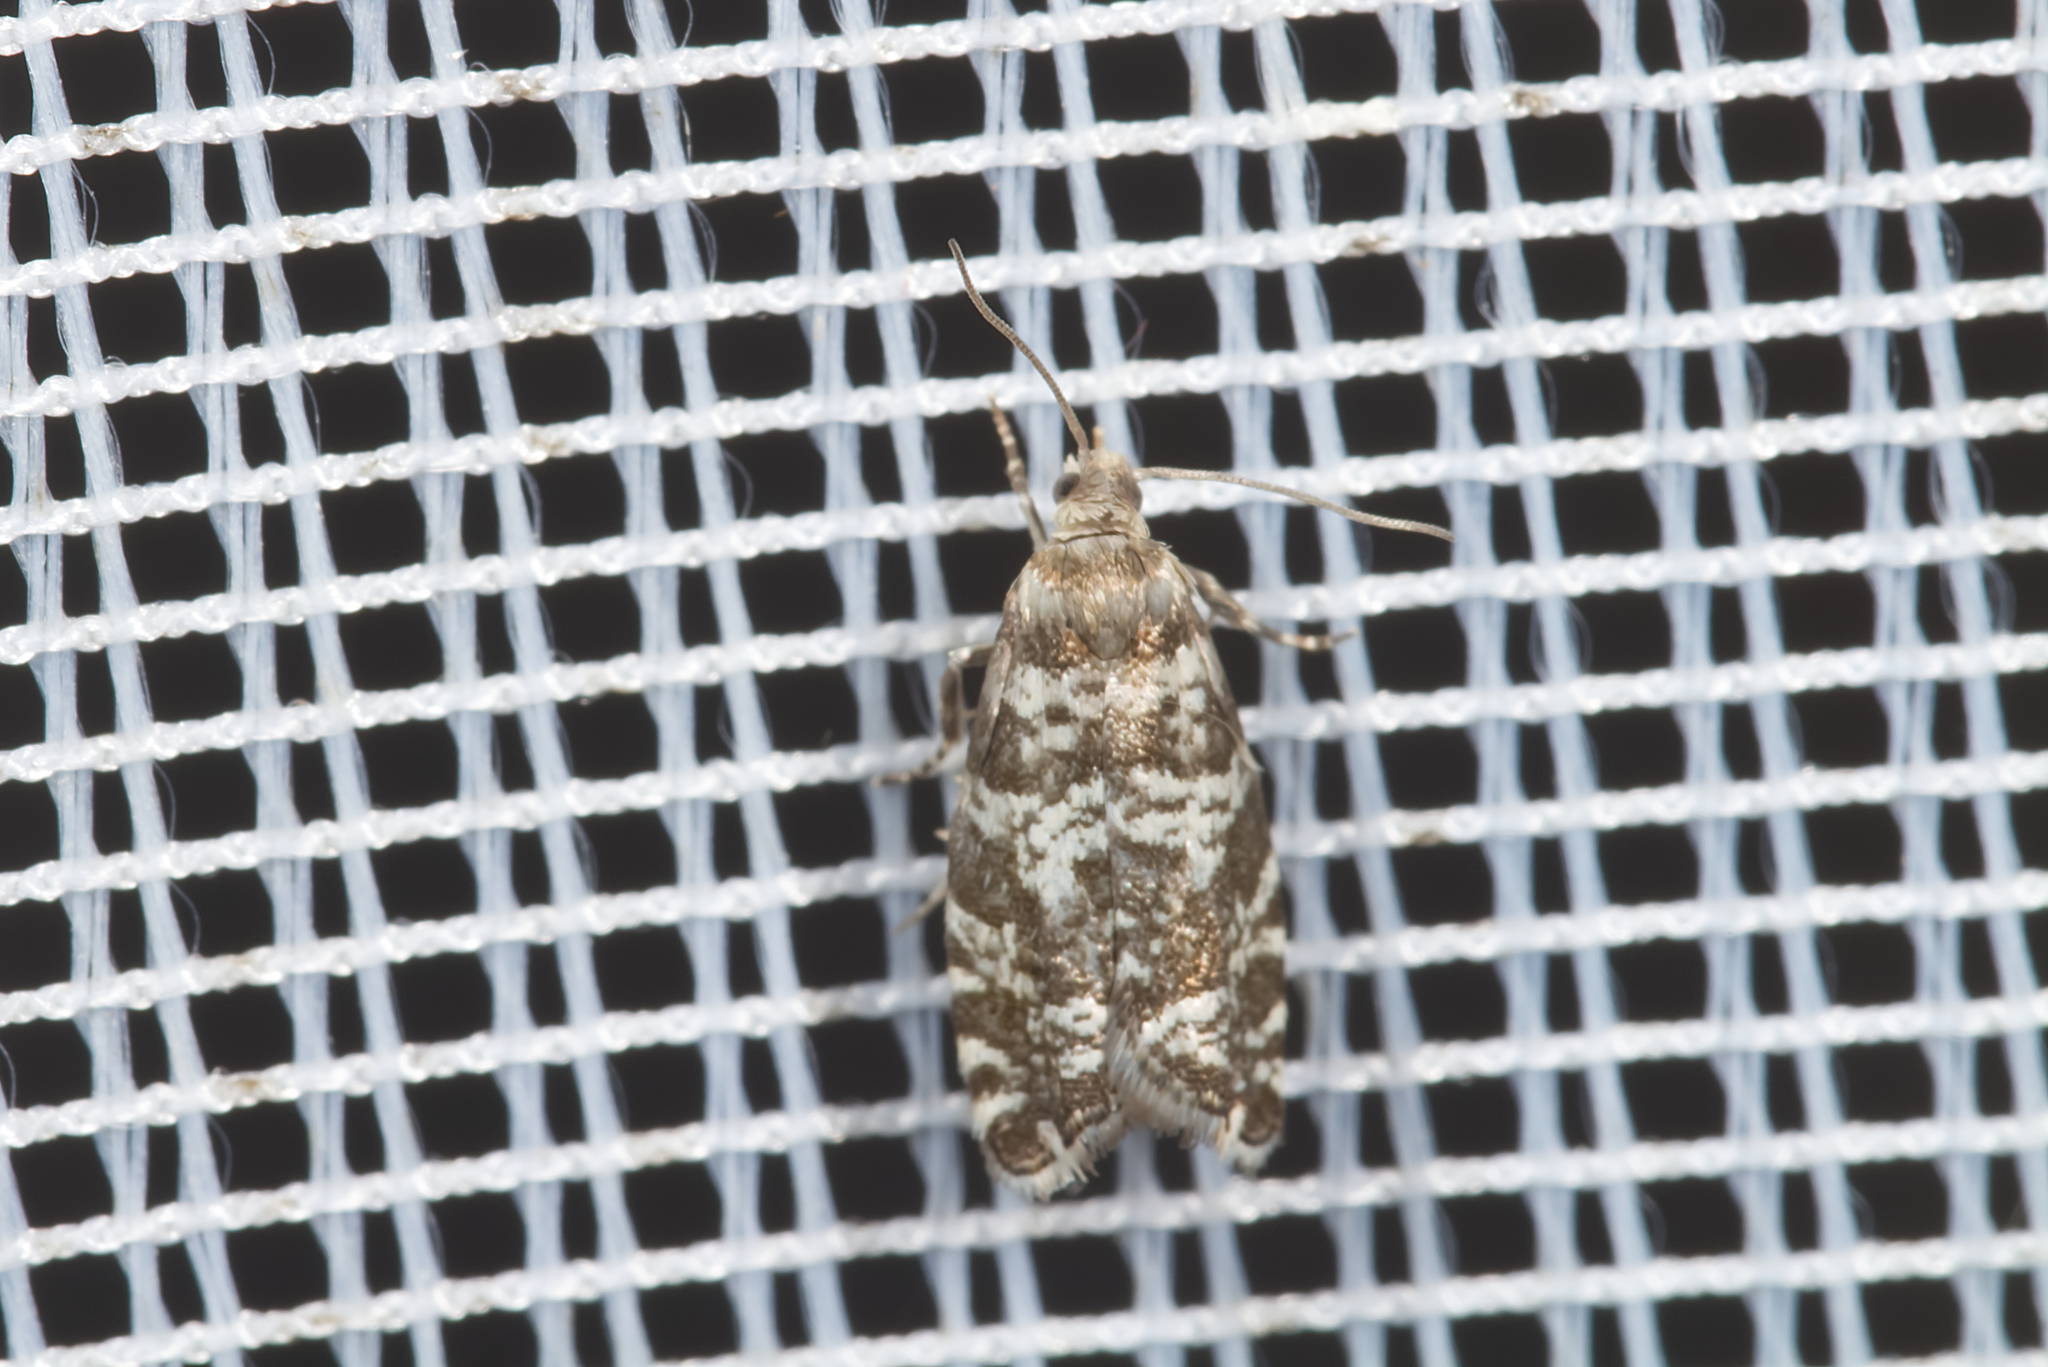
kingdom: Animalia
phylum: Arthropoda
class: Insecta
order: Lepidoptera
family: Tortricidae
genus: Epinotia
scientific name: Epinotia tedella
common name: Common spruce bell
